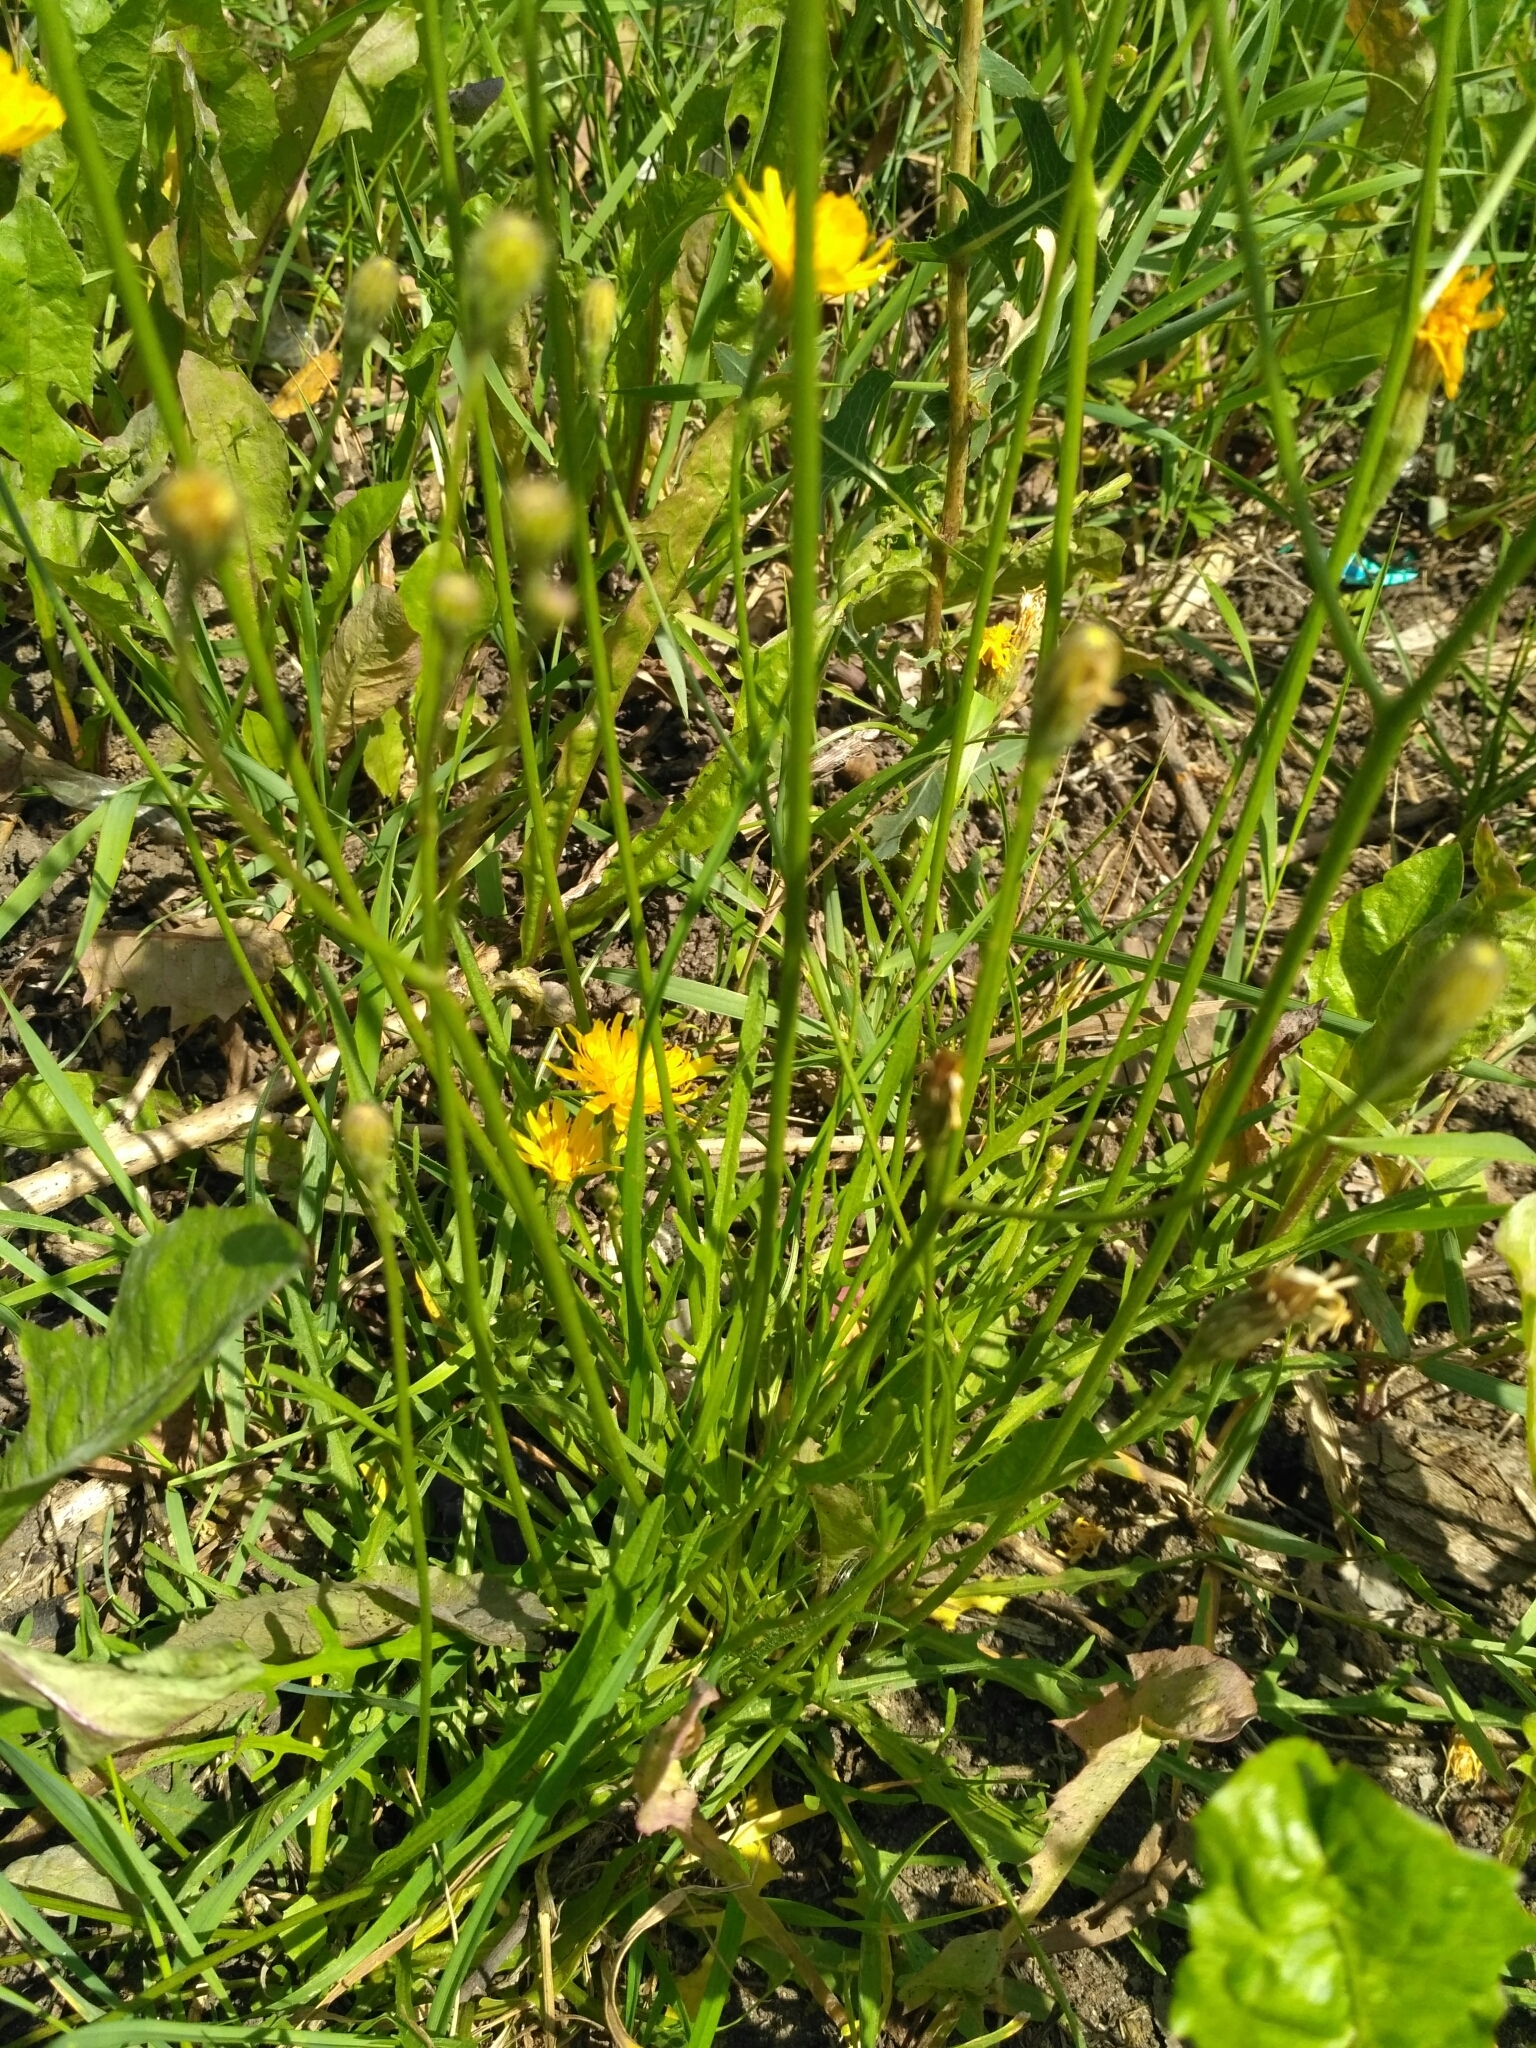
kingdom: Plantae
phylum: Tracheophyta
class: Magnoliopsida
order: Asterales
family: Asteraceae
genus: Scorzoneroides
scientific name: Scorzoneroides autumnalis
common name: Autumn hawkbit
